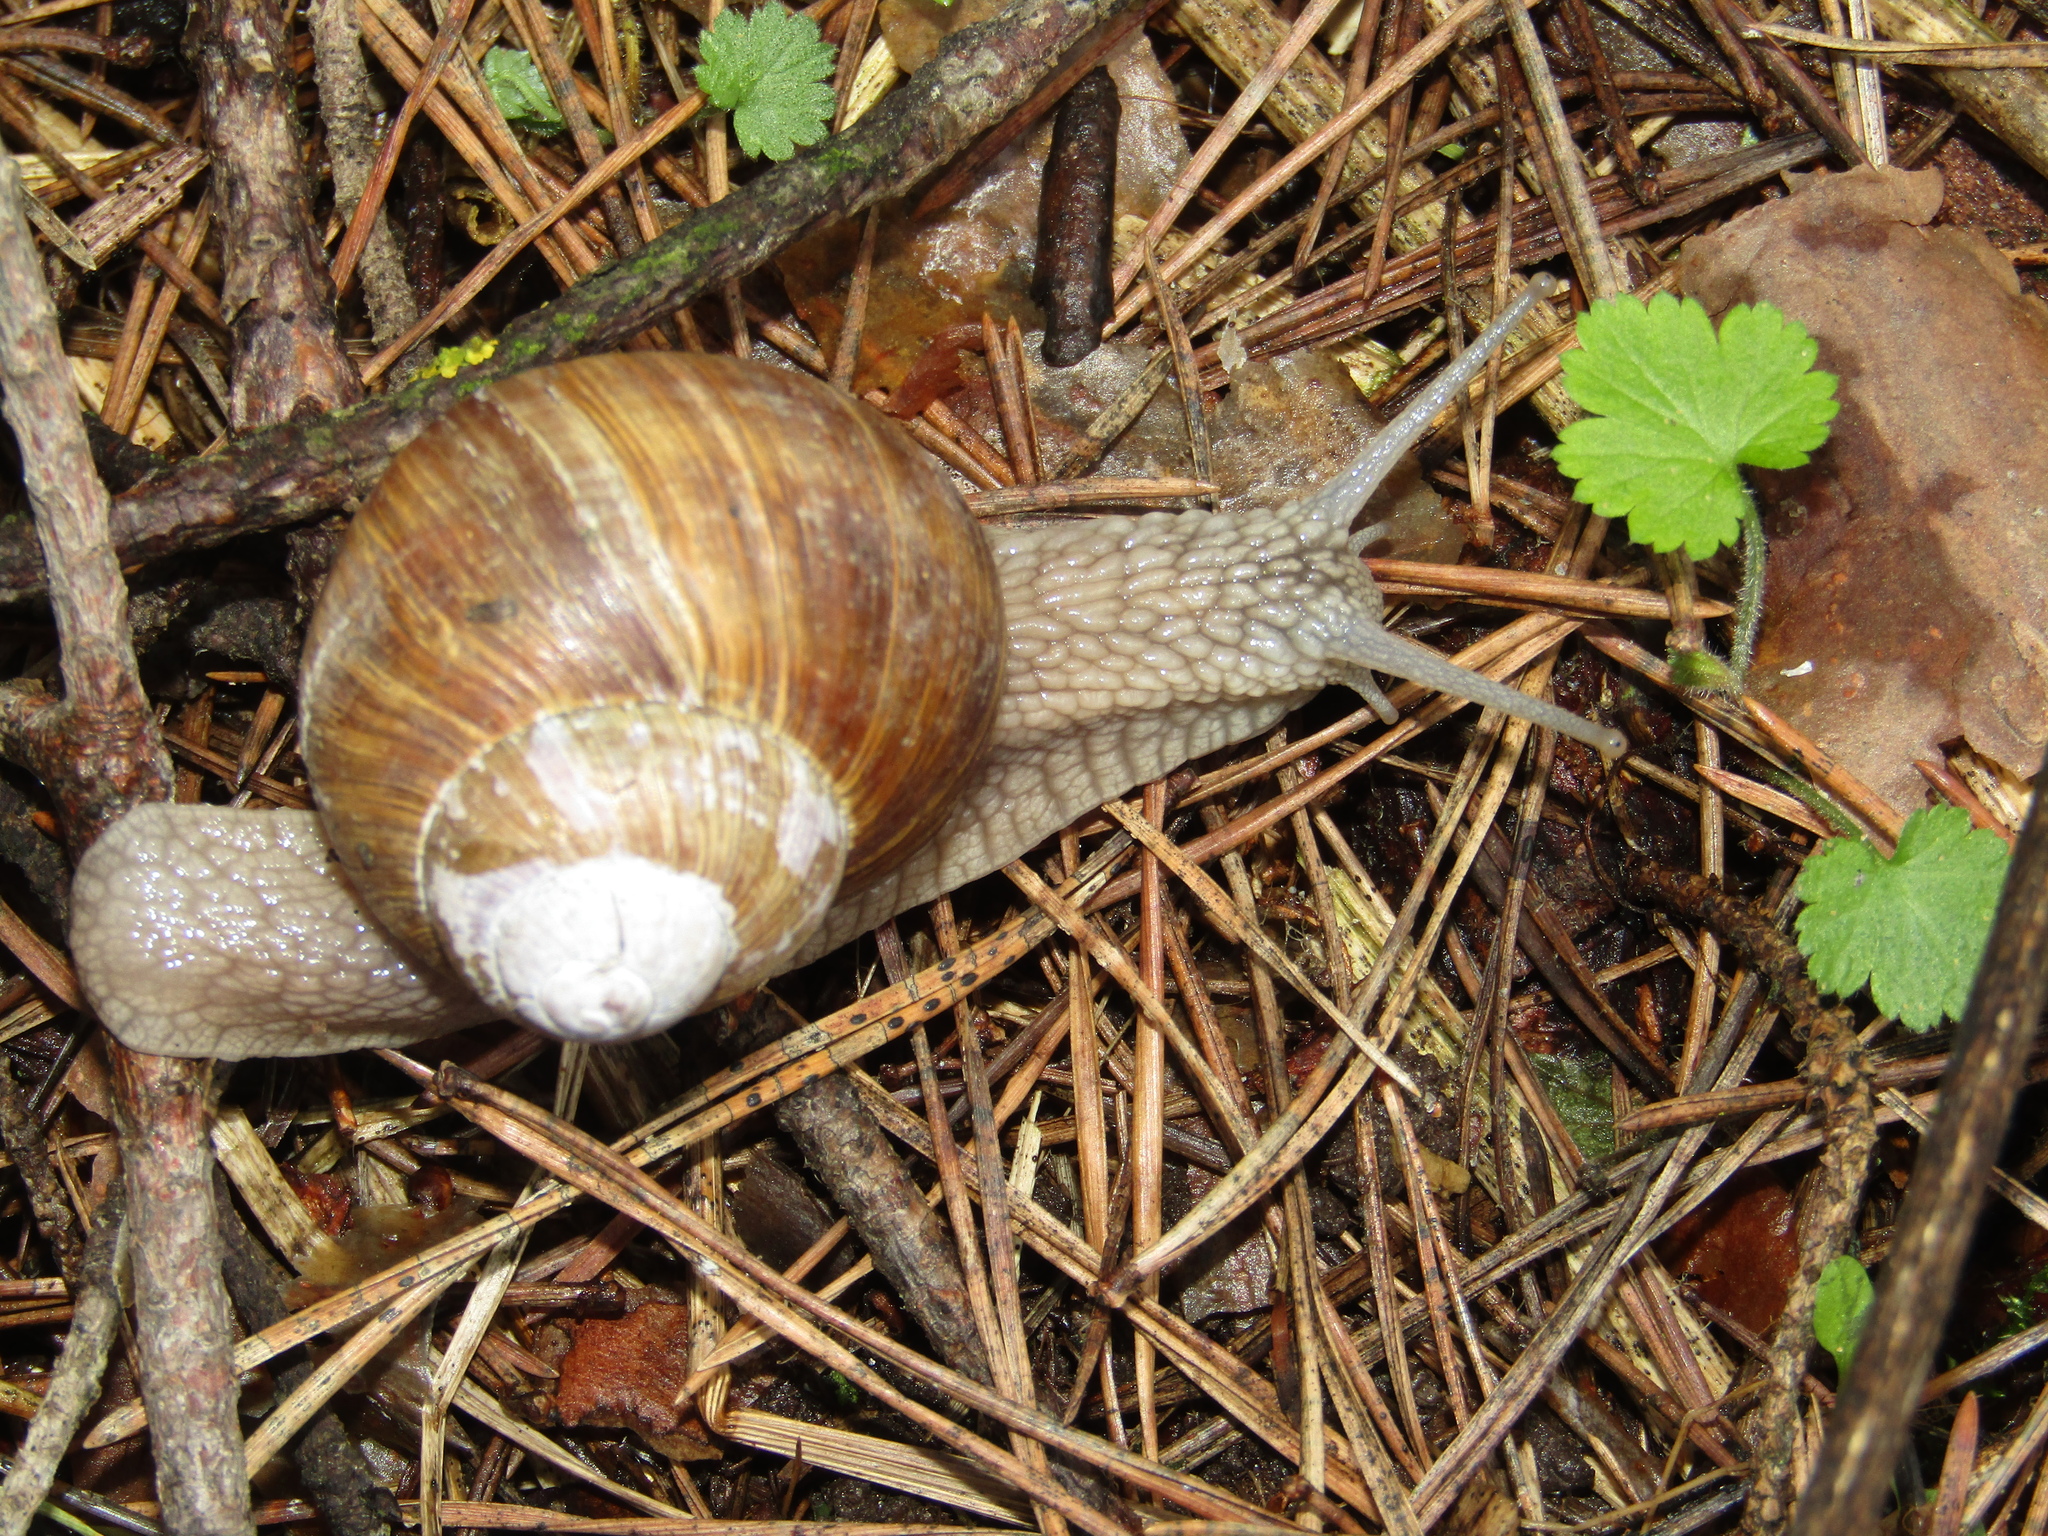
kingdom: Animalia
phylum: Mollusca
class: Gastropoda
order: Stylommatophora
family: Helicidae
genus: Helix
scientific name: Helix pomatia
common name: Roman snail
